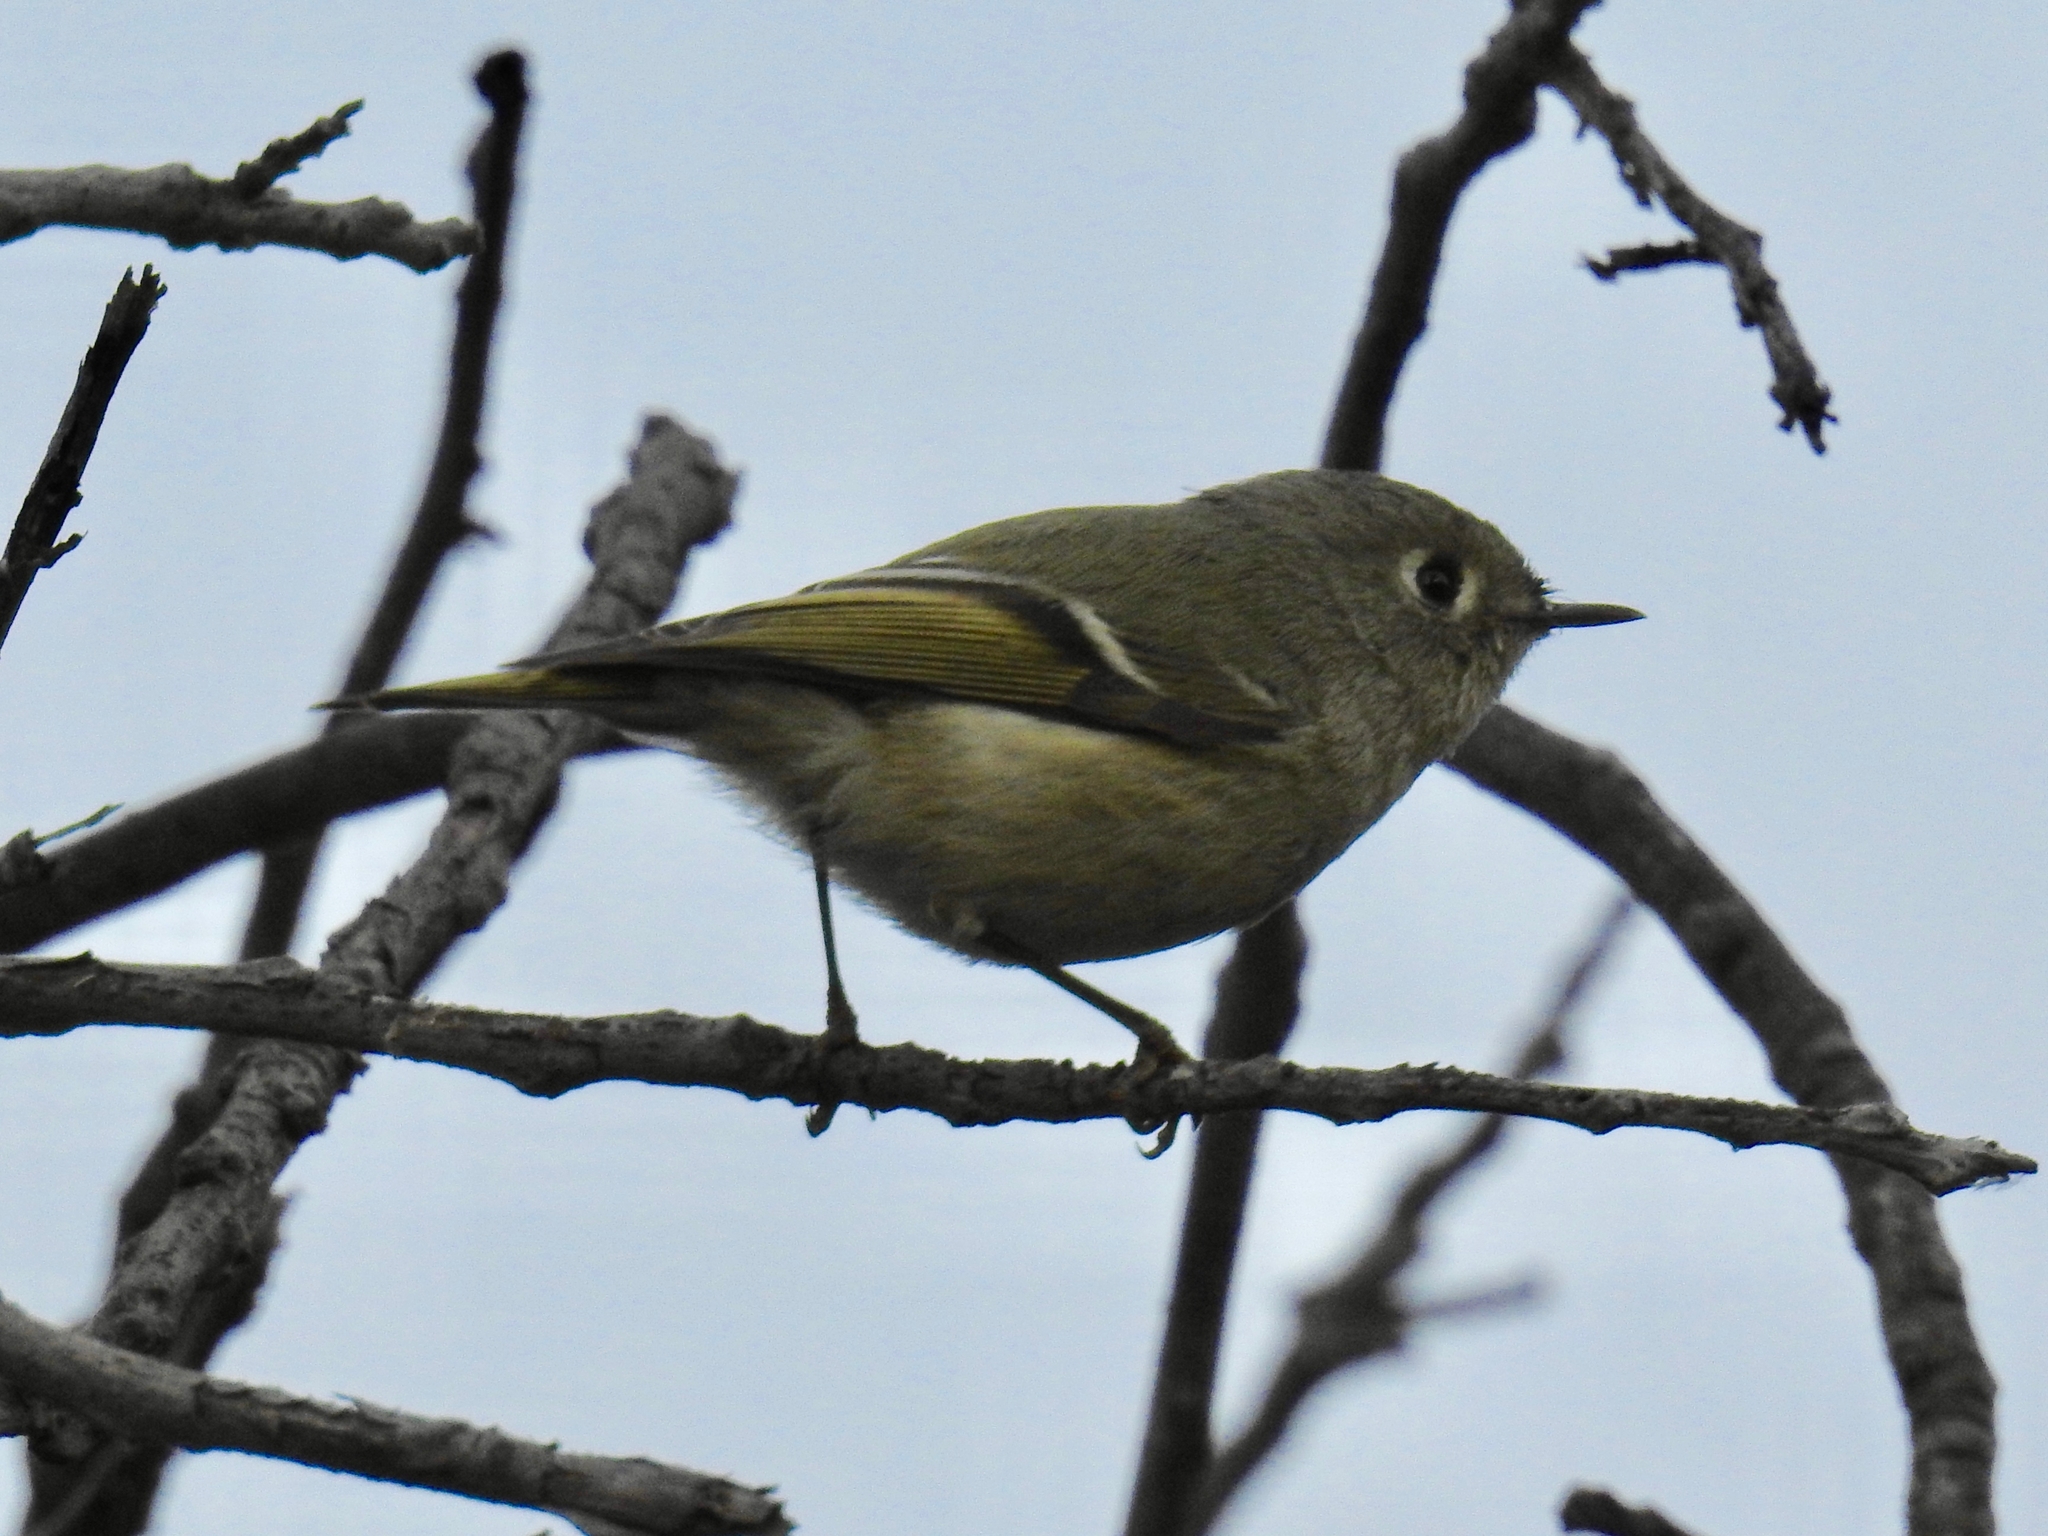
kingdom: Animalia
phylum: Chordata
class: Aves
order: Passeriformes
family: Regulidae
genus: Regulus
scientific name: Regulus calendula
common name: Ruby-crowned kinglet
